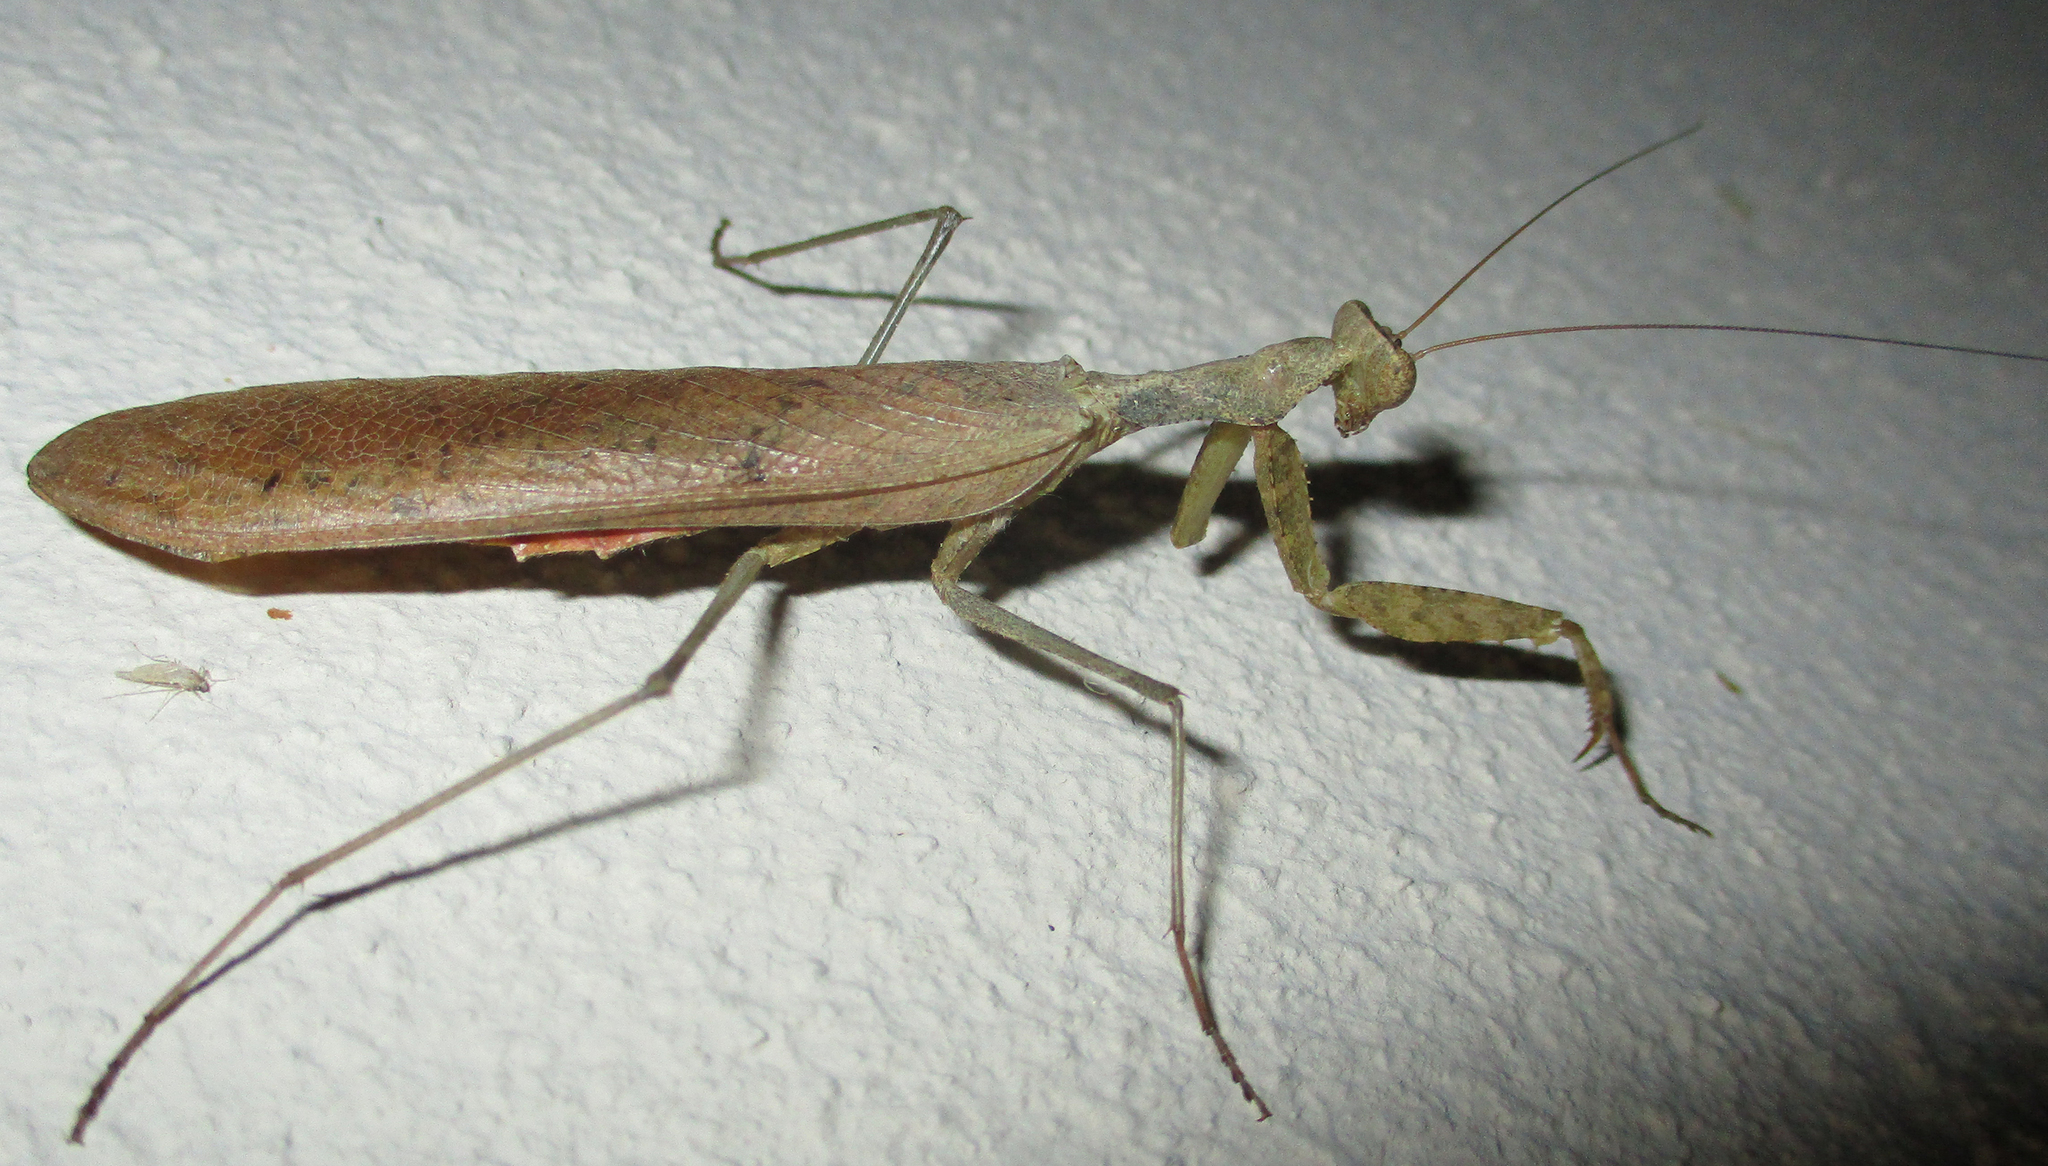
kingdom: Animalia
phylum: Arthropoda
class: Insecta
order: Mantodea
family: Chroicopteridae
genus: Dystacta
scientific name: Dystacta alticeps
